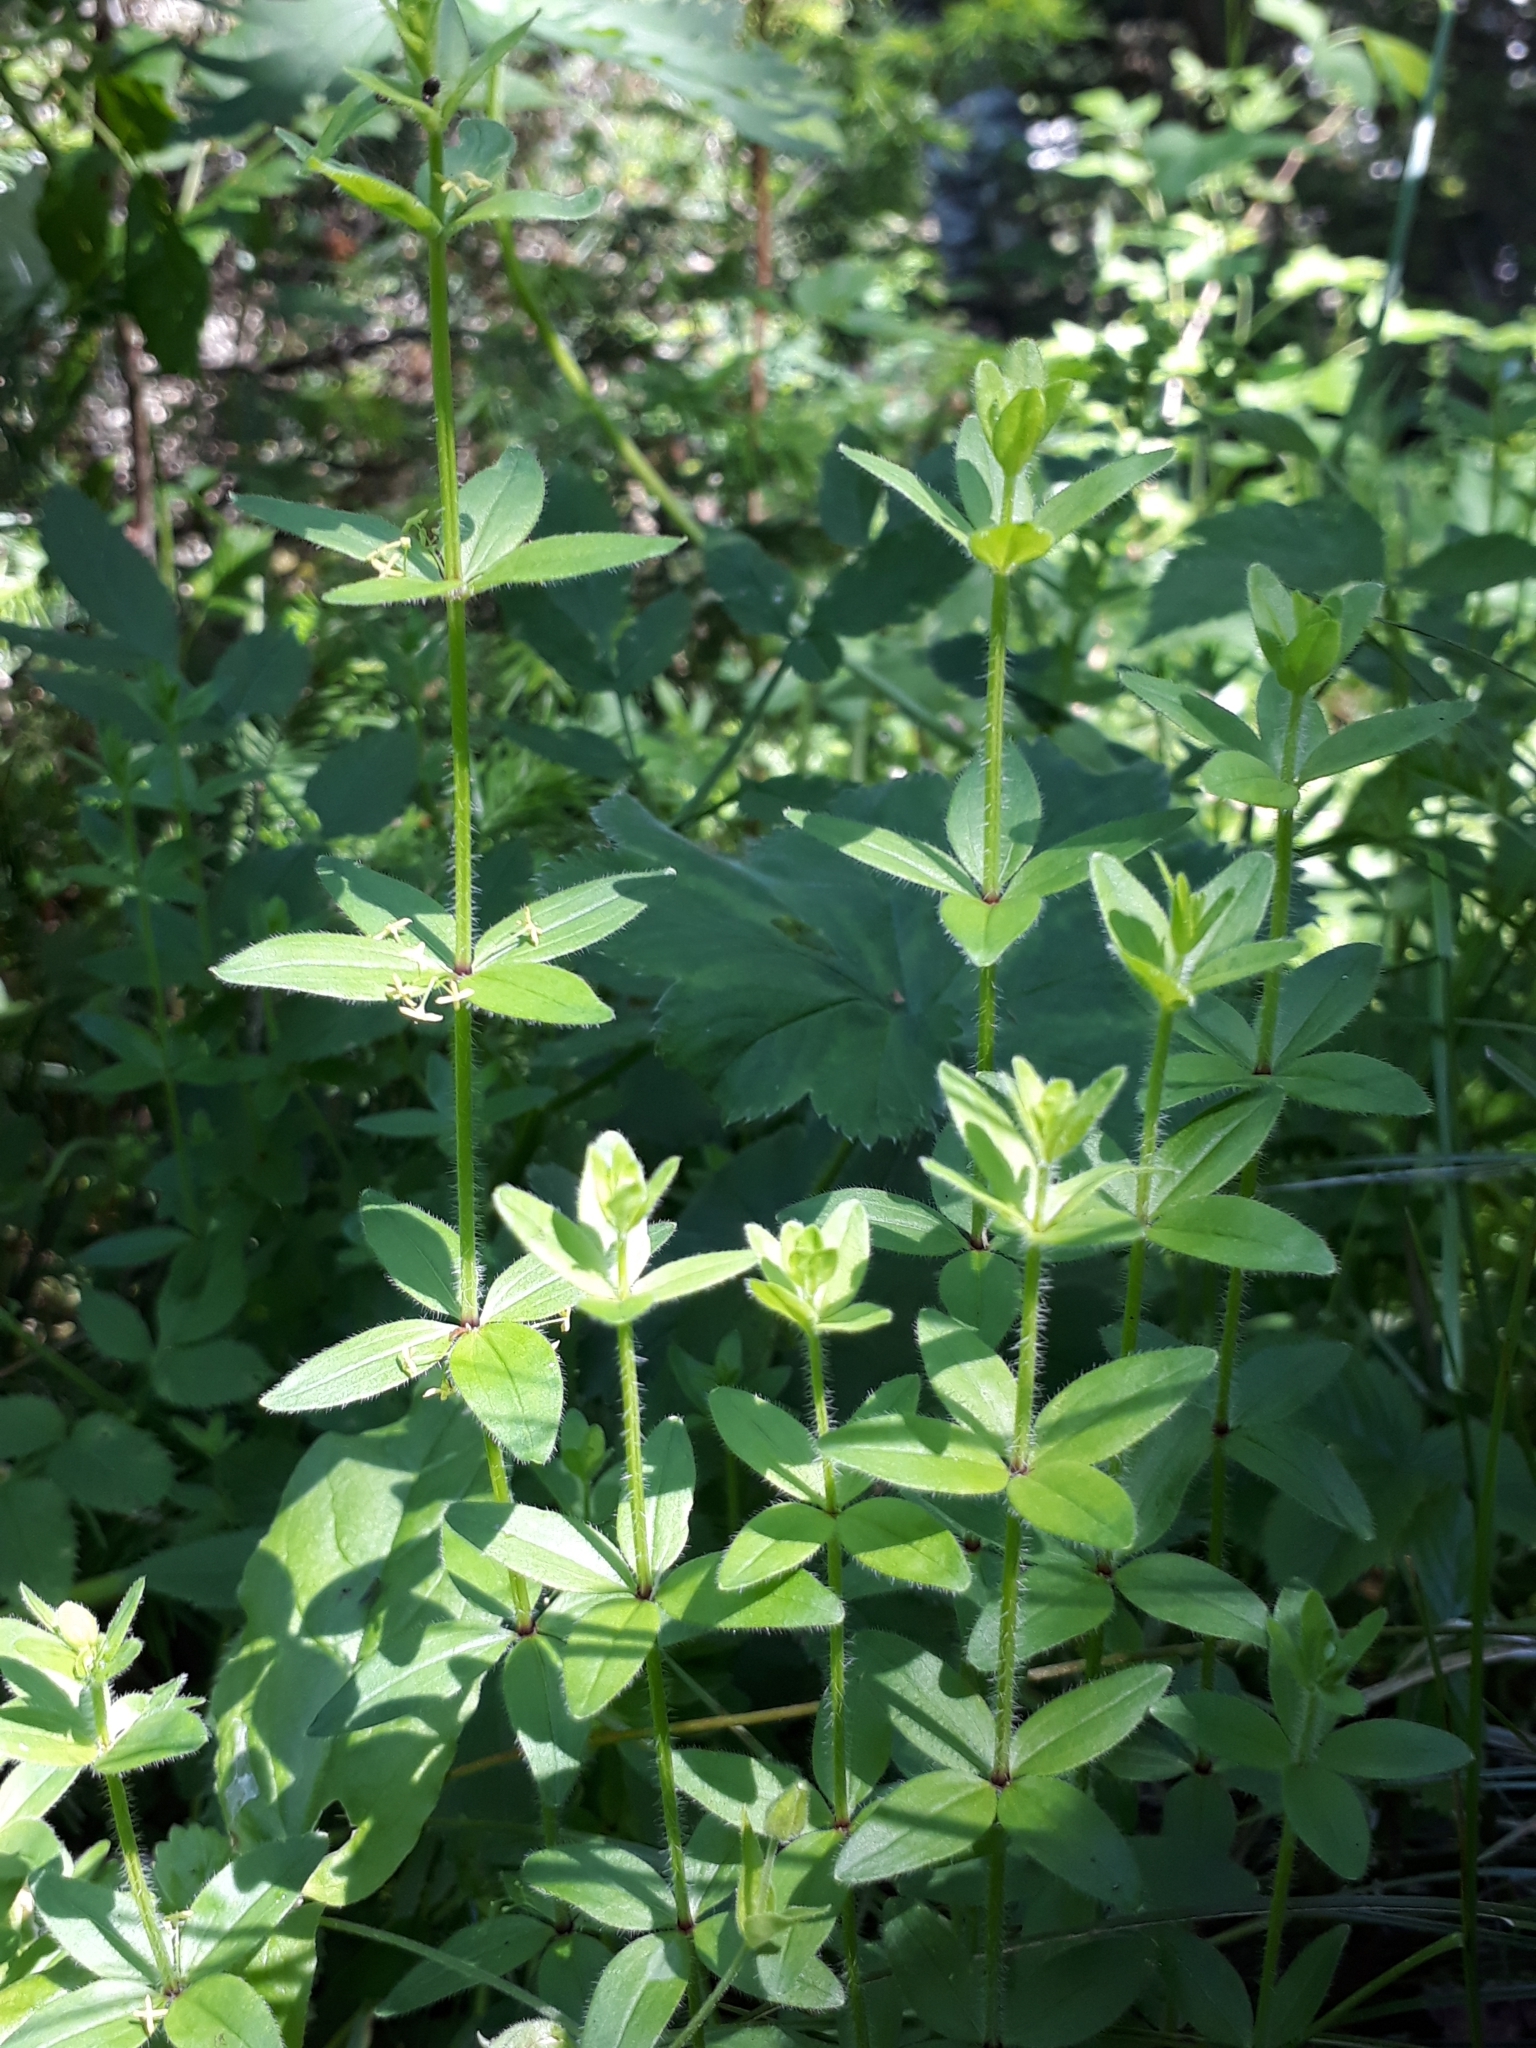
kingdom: Plantae
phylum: Tracheophyta
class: Magnoliopsida
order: Gentianales
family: Rubiaceae
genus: Cruciata
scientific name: Cruciata glabra
